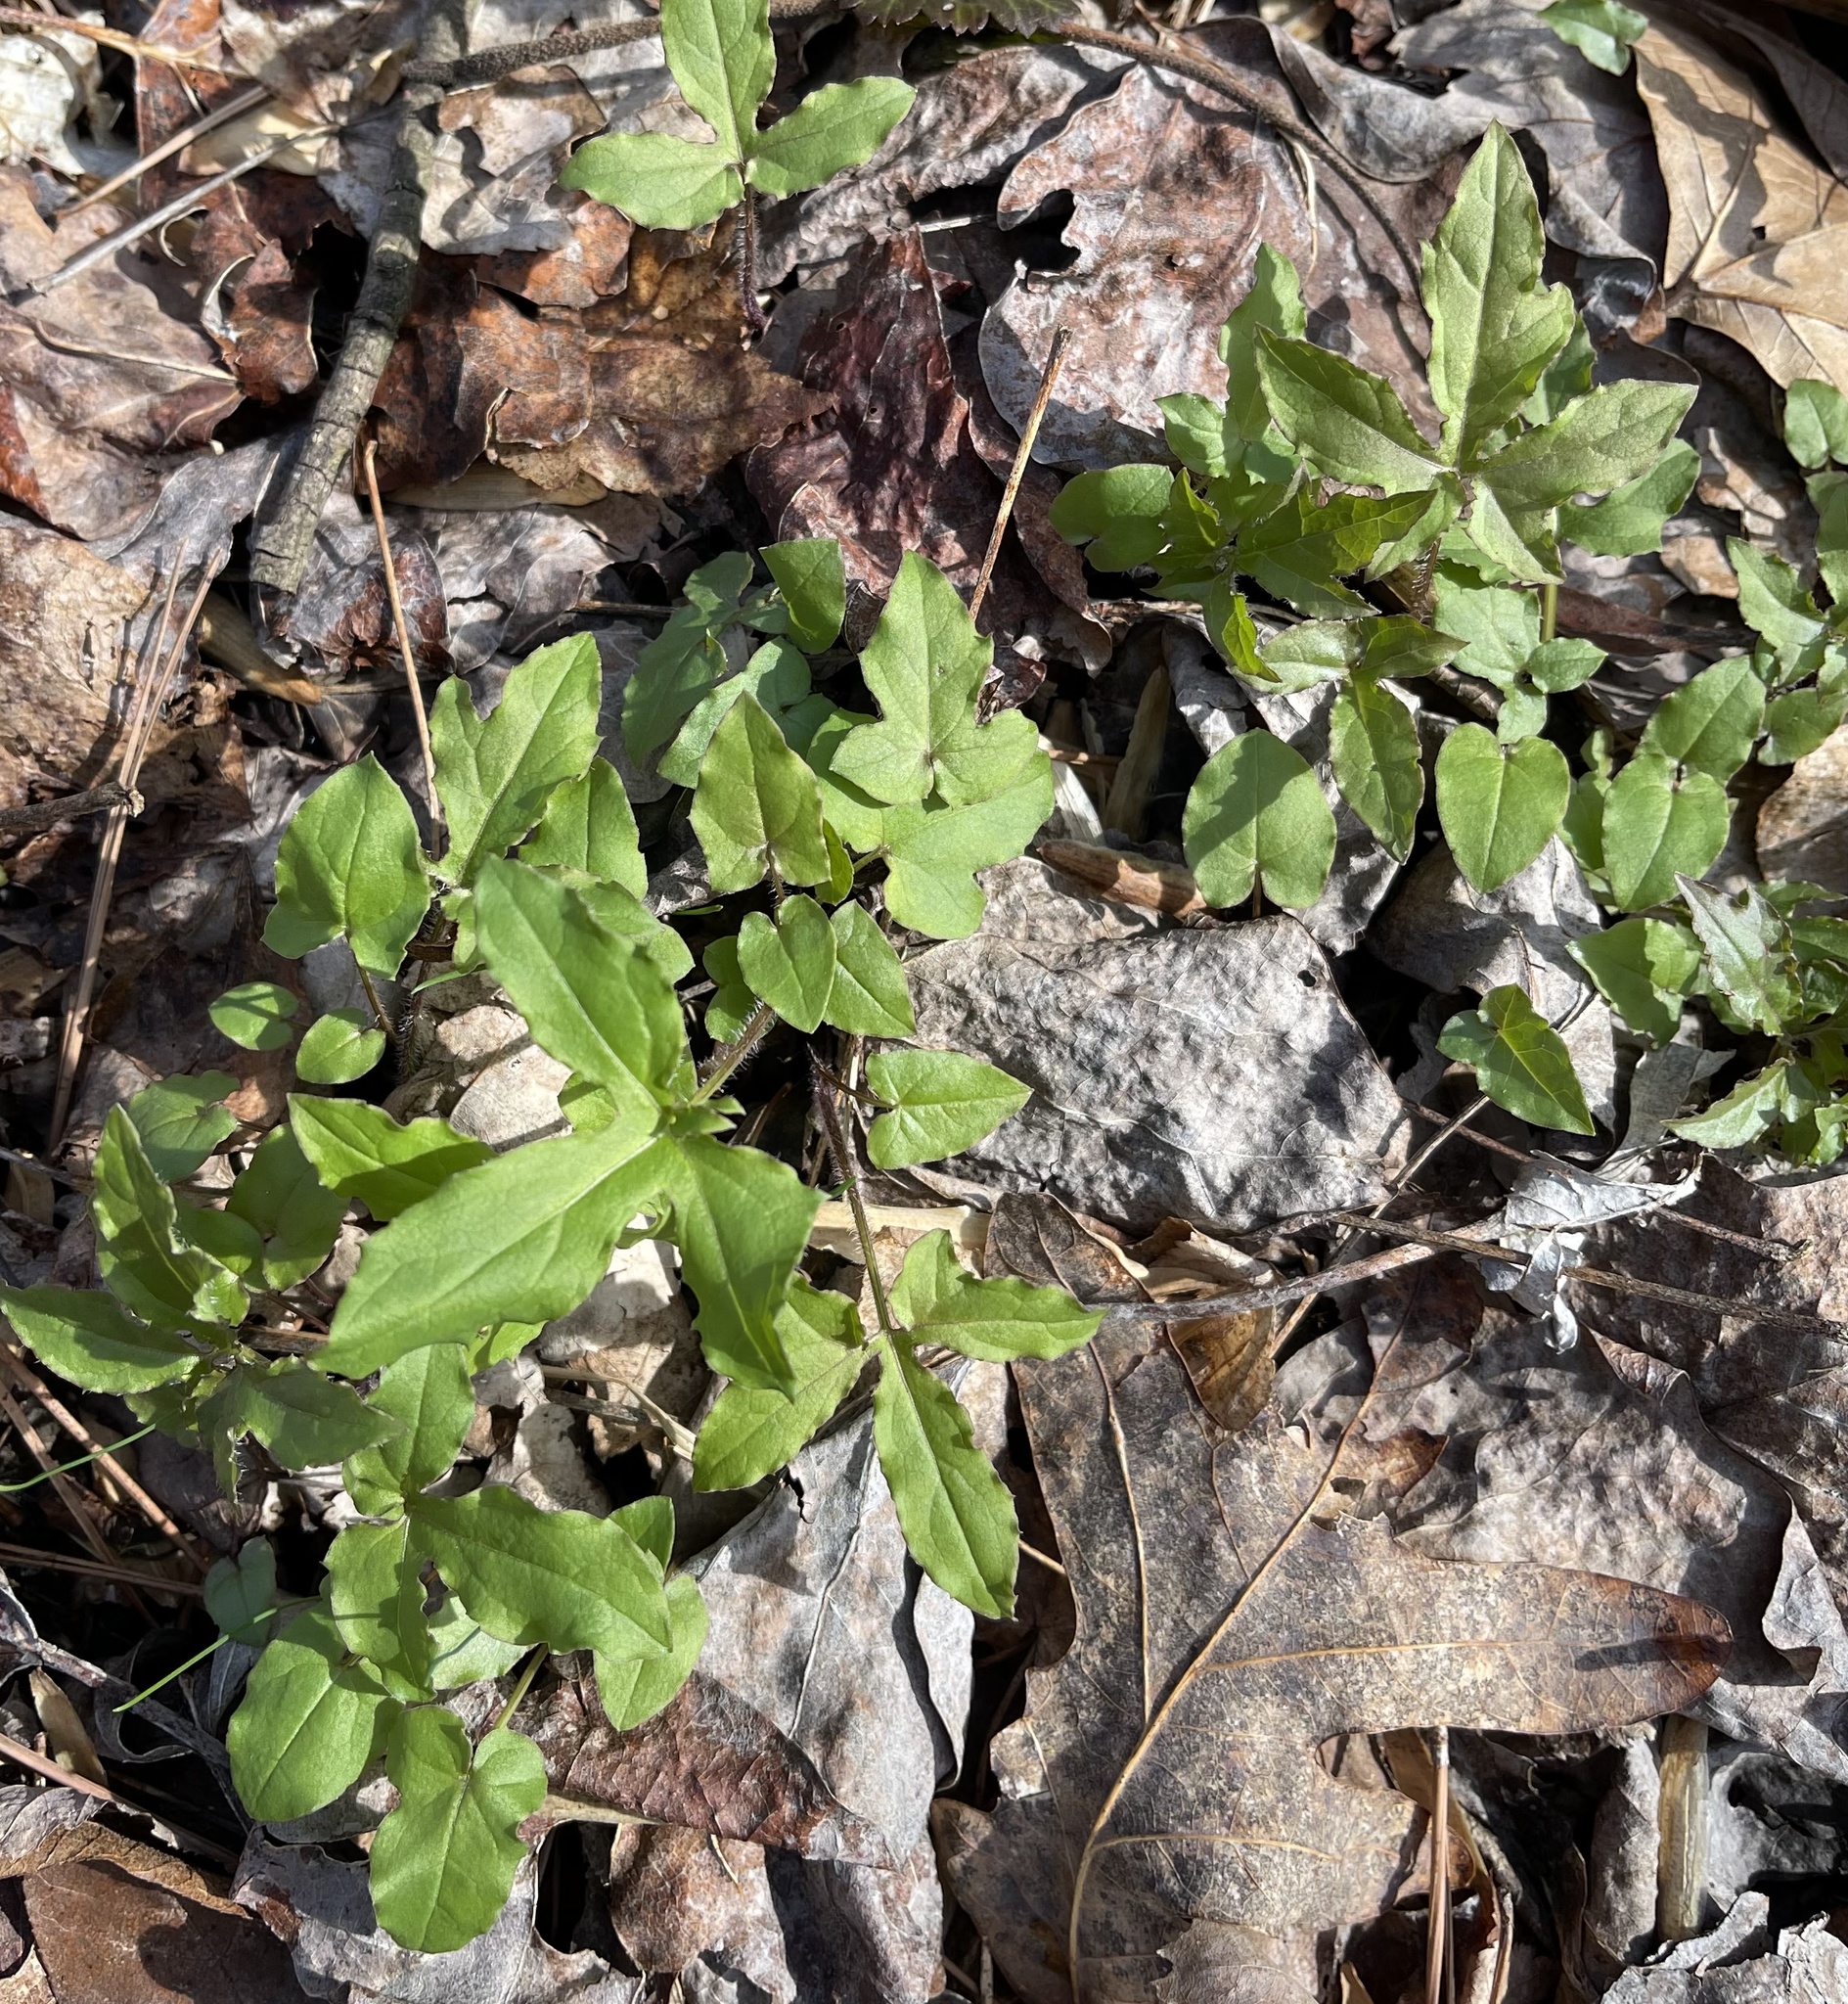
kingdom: Plantae
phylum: Tracheophyta
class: Magnoliopsida
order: Asterales
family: Asteraceae
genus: Nabalus
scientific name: Nabalus altissima
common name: Tall rattlesnakeroot
